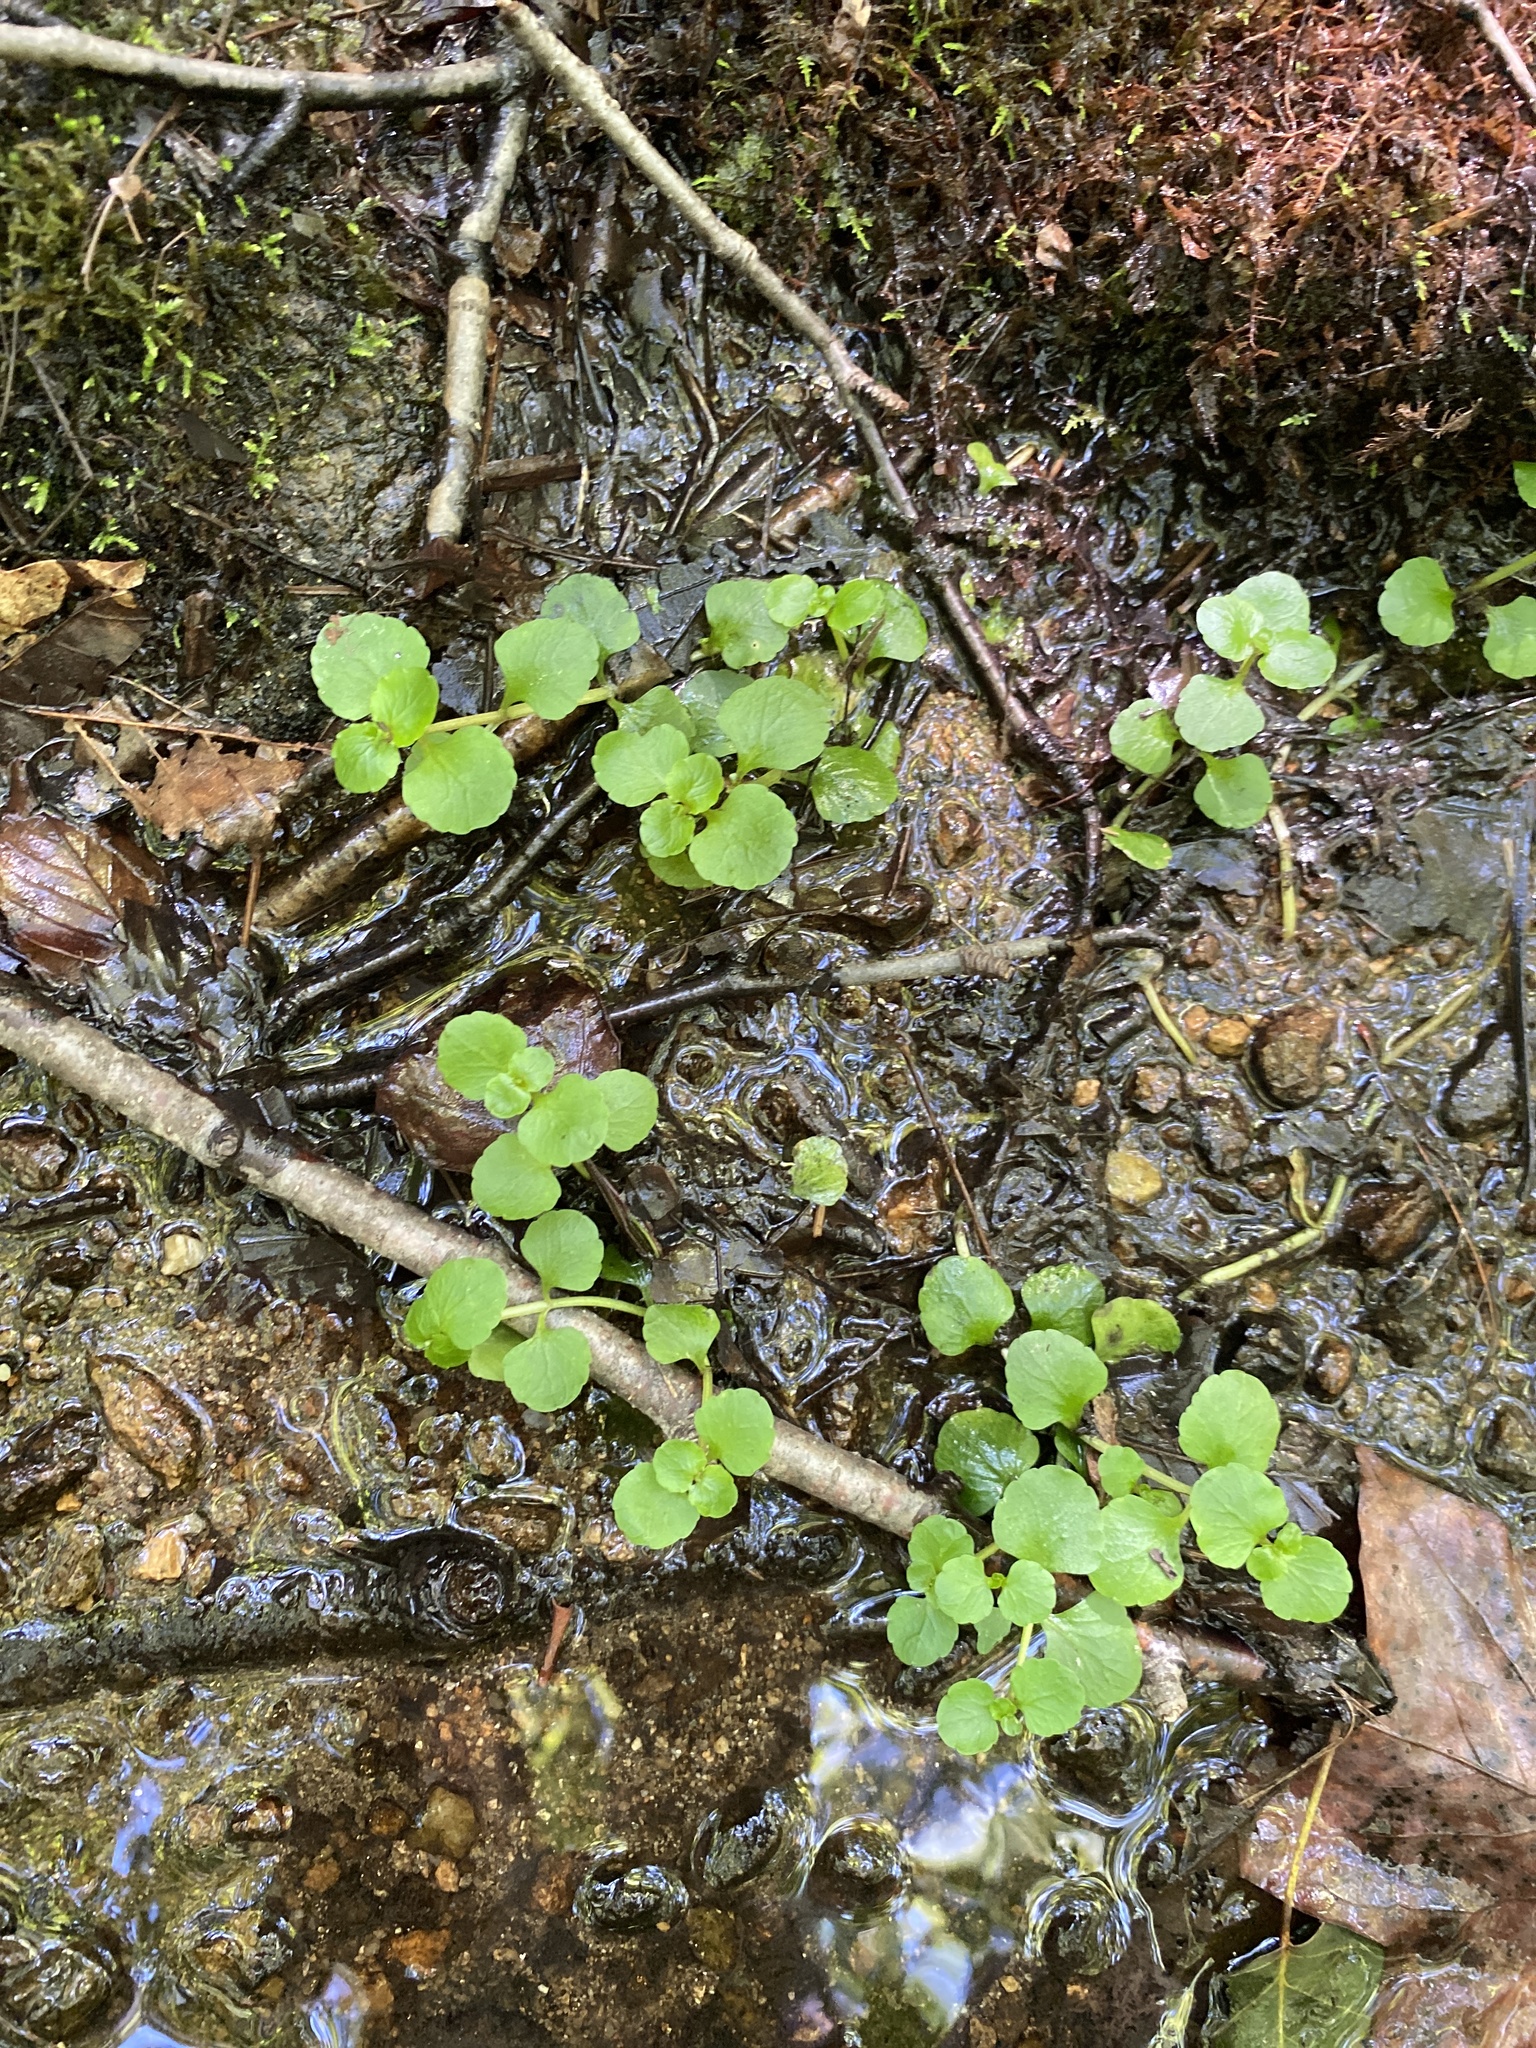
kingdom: Plantae
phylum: Tracheophyta
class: Magnoliopsida
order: Saxifragales
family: Saxifragaceae
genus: Chrysosplenium
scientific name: Chrysosplenium americanum
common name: American golden-saxifrage
